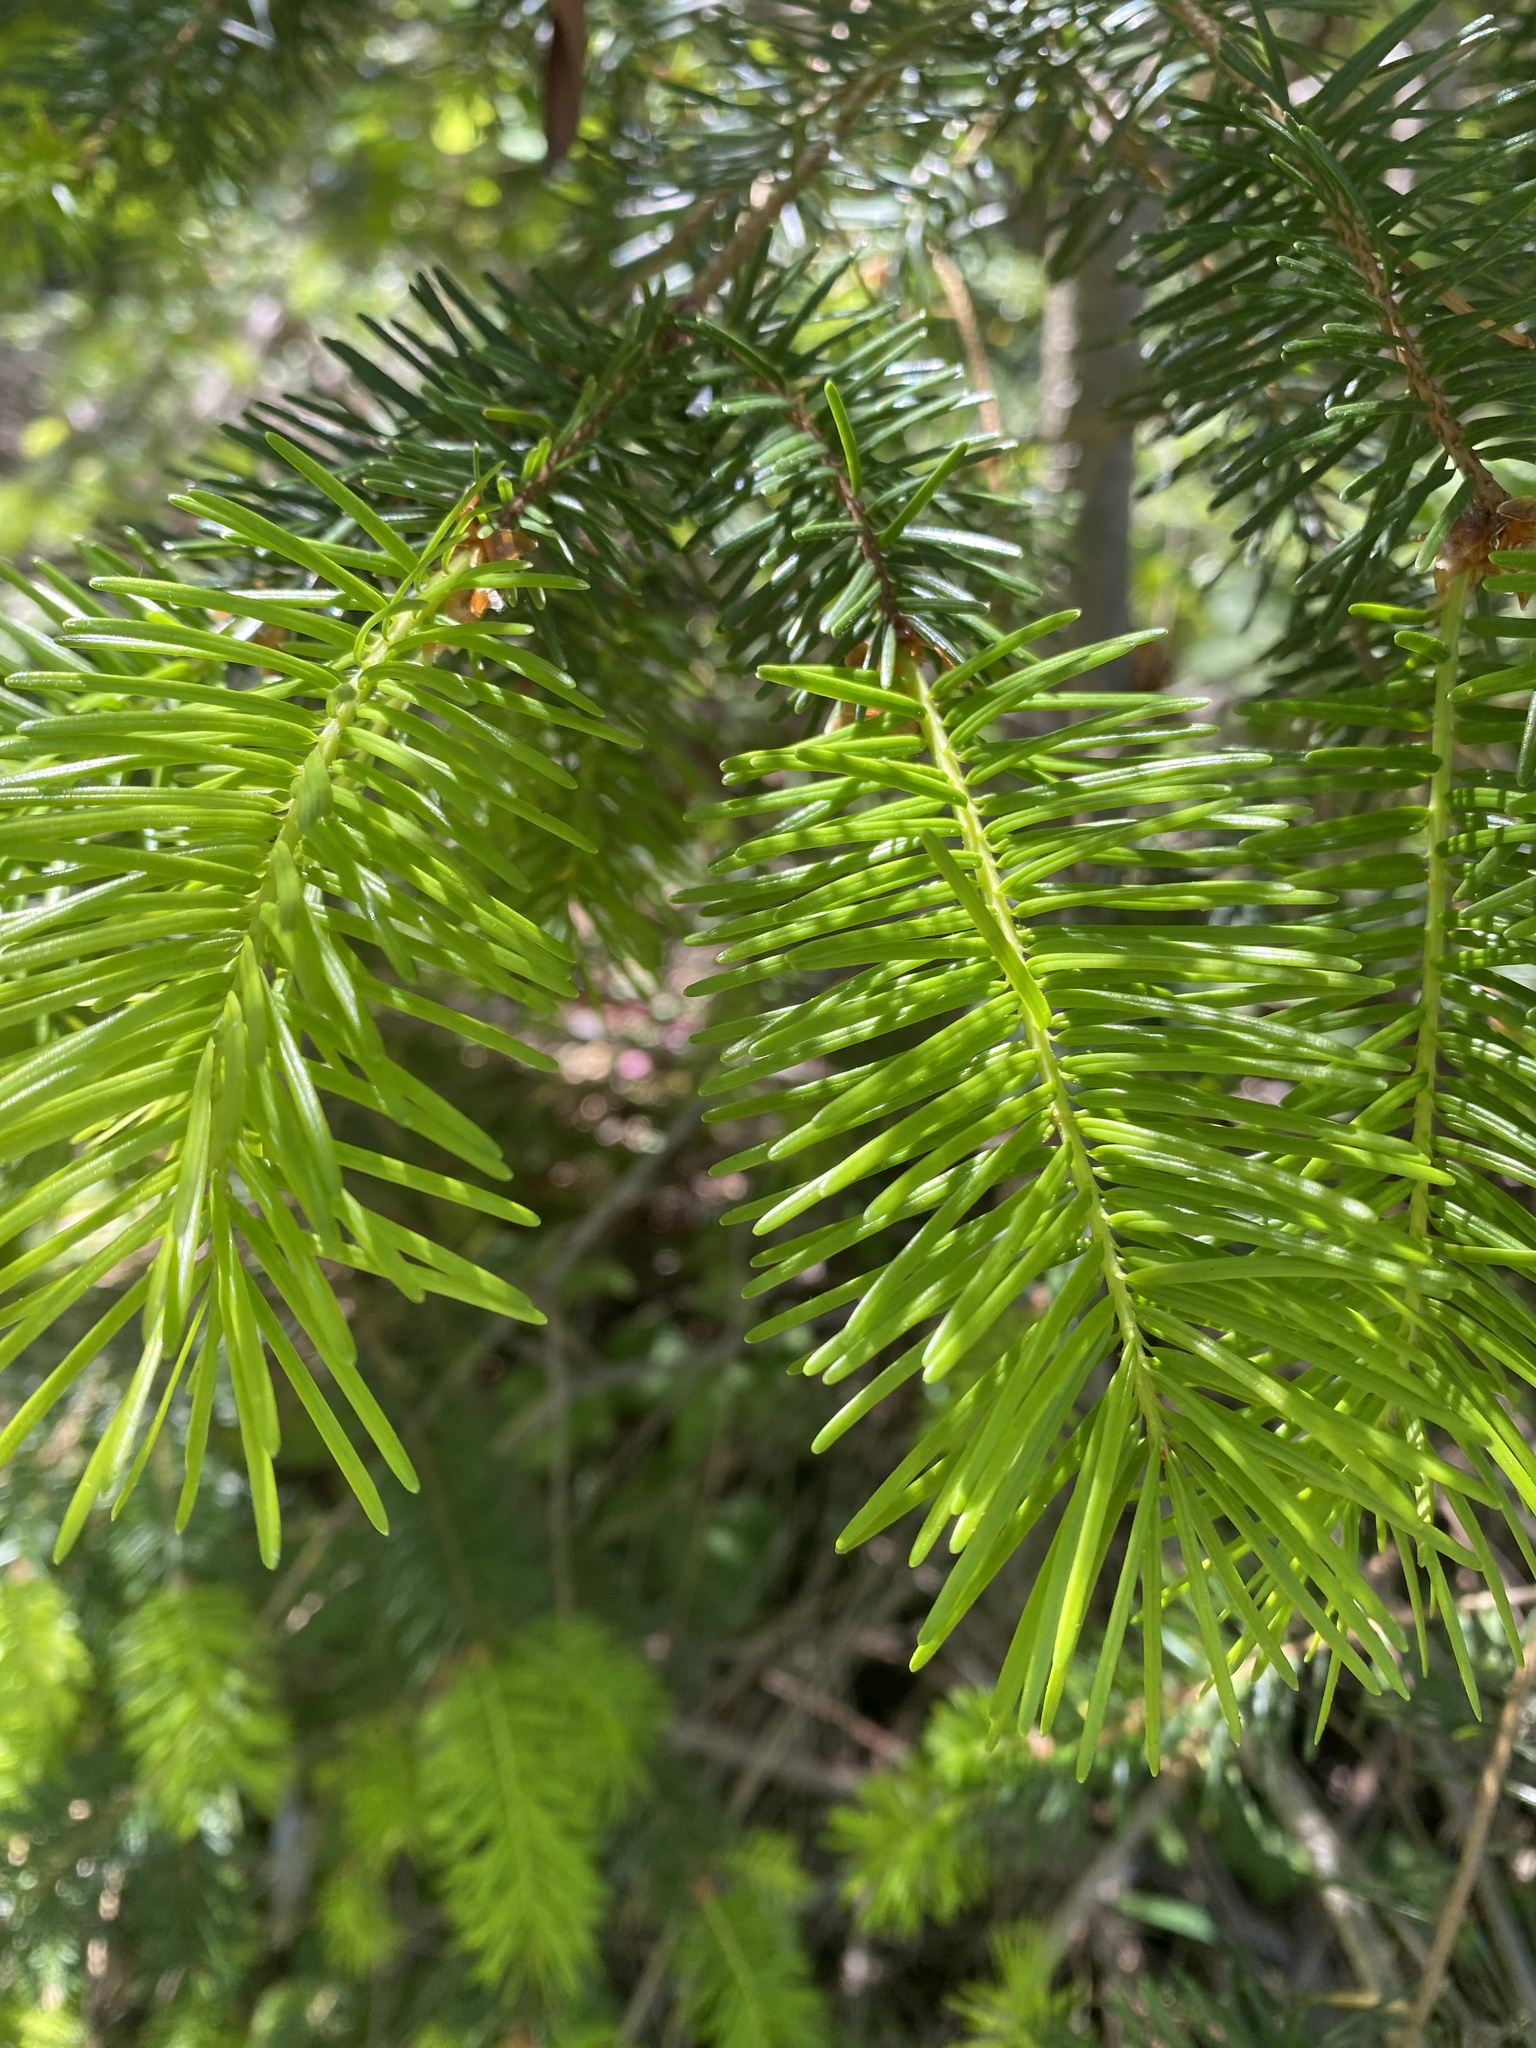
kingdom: Plantae
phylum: Tracheophyta
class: Pinopsida
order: Pinales
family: Pinaceae
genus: Pseudotsuga
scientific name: Pseudotsuga menziesii
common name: Douglas fir
